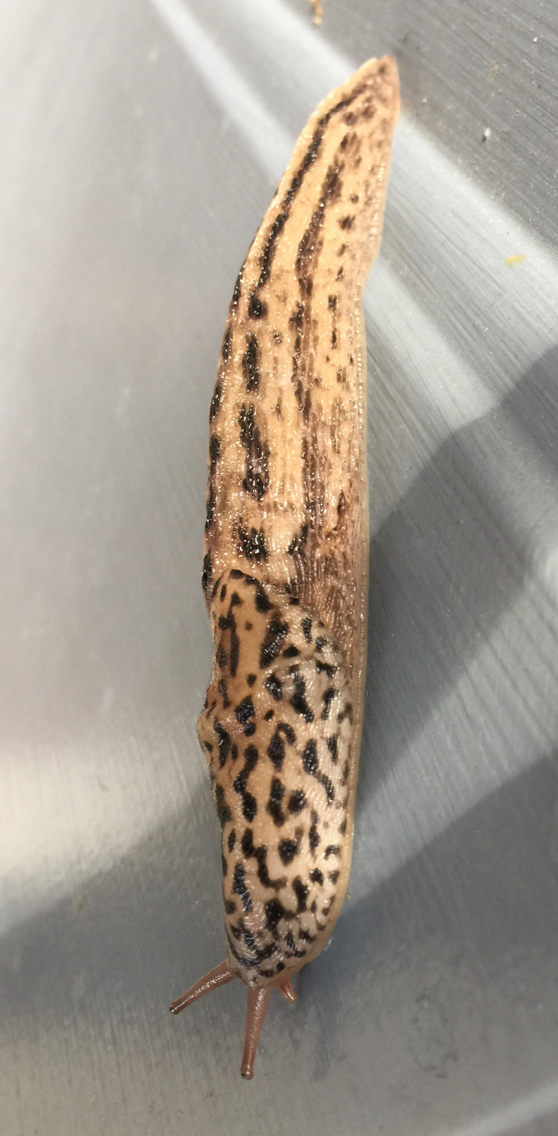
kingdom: Animalia
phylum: Mollusca
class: Gastropoda
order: Stylommatophora
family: Limacidae
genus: Limax
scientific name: Limax maximus
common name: Great grey slug
